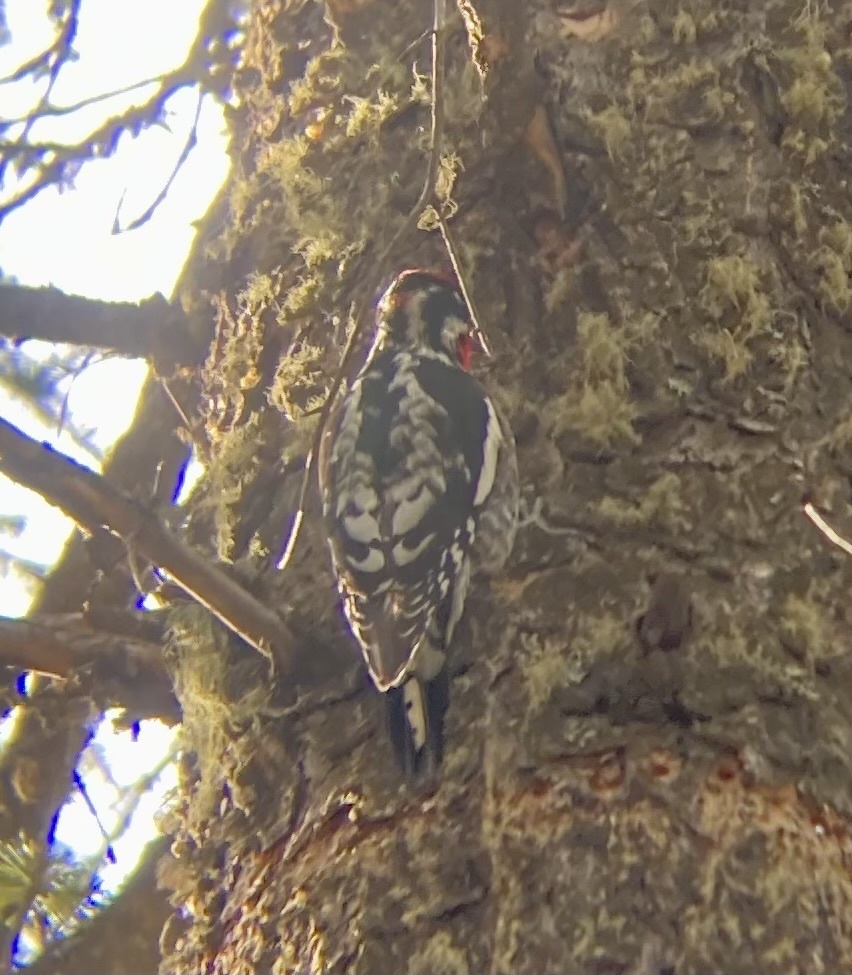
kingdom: Animalia
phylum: Chordata
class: Aves
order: Piciformes
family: Picidae
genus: Sphyrapicus
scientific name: Sphyrapicus nuchalis
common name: Red-naped sapsucker
